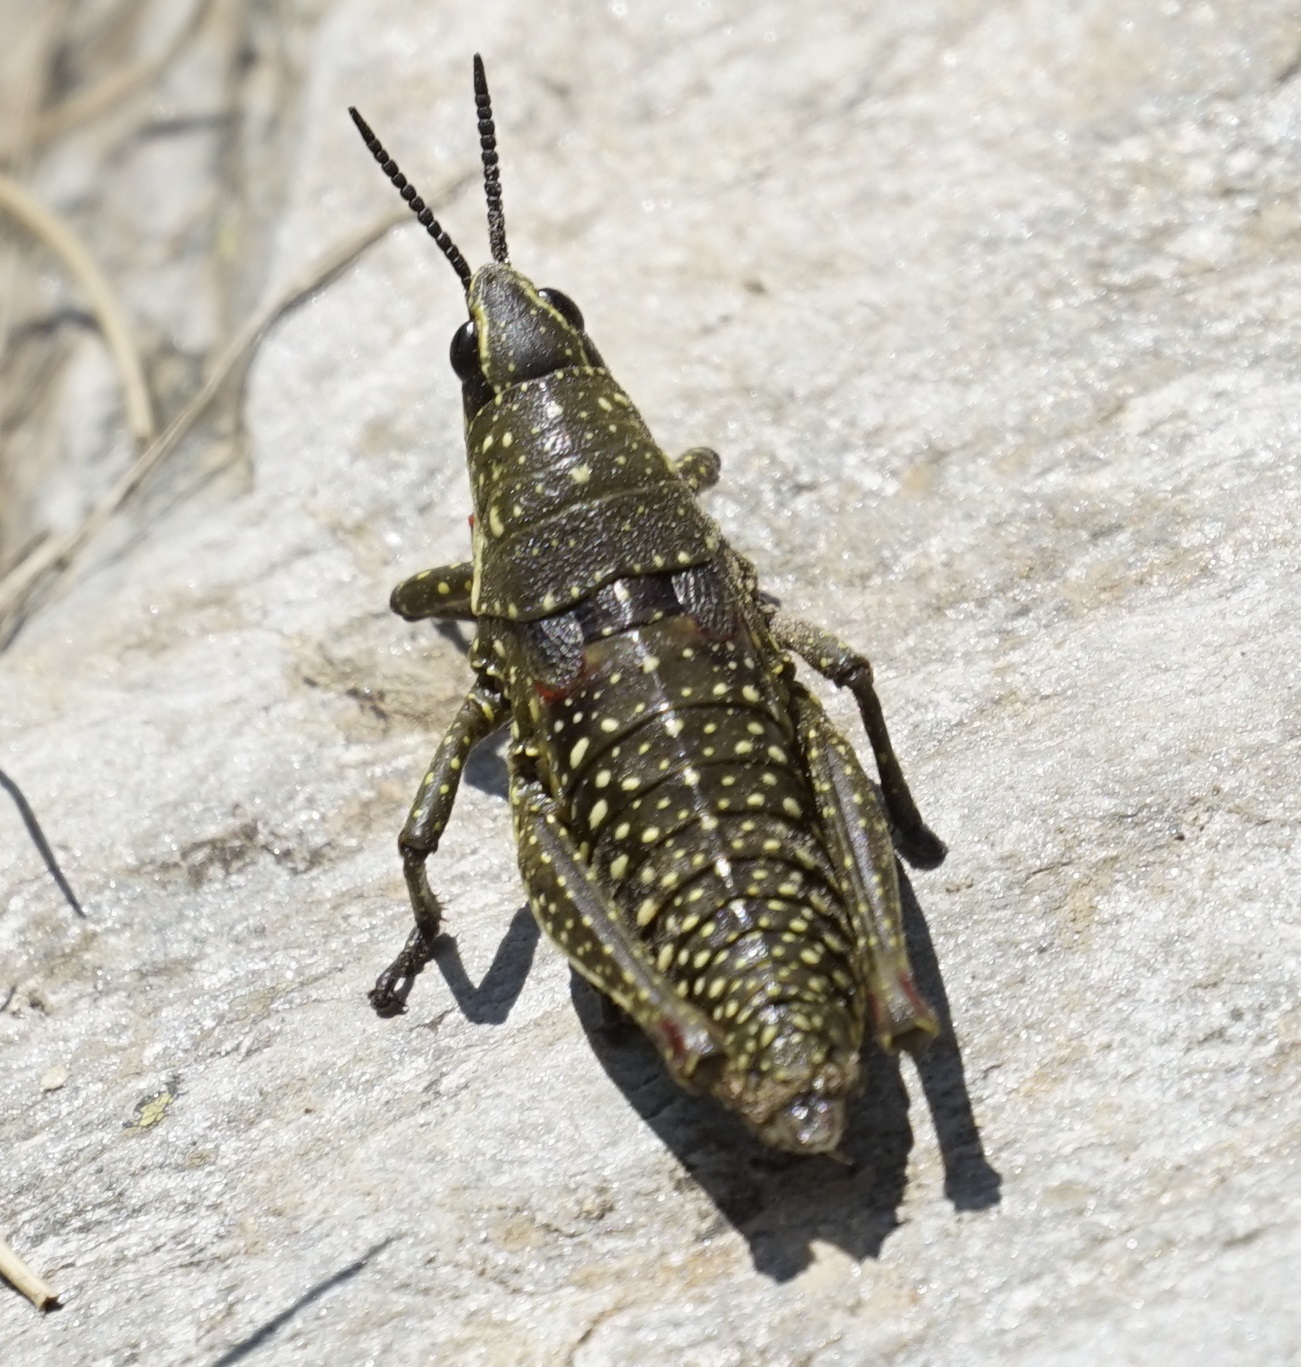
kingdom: Animalia
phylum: Arthropoda
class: Insecta
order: Orthoptera
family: Pyrgomorphidae
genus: Monistria
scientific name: Monistria concinna
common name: Southern pyrgomorph
